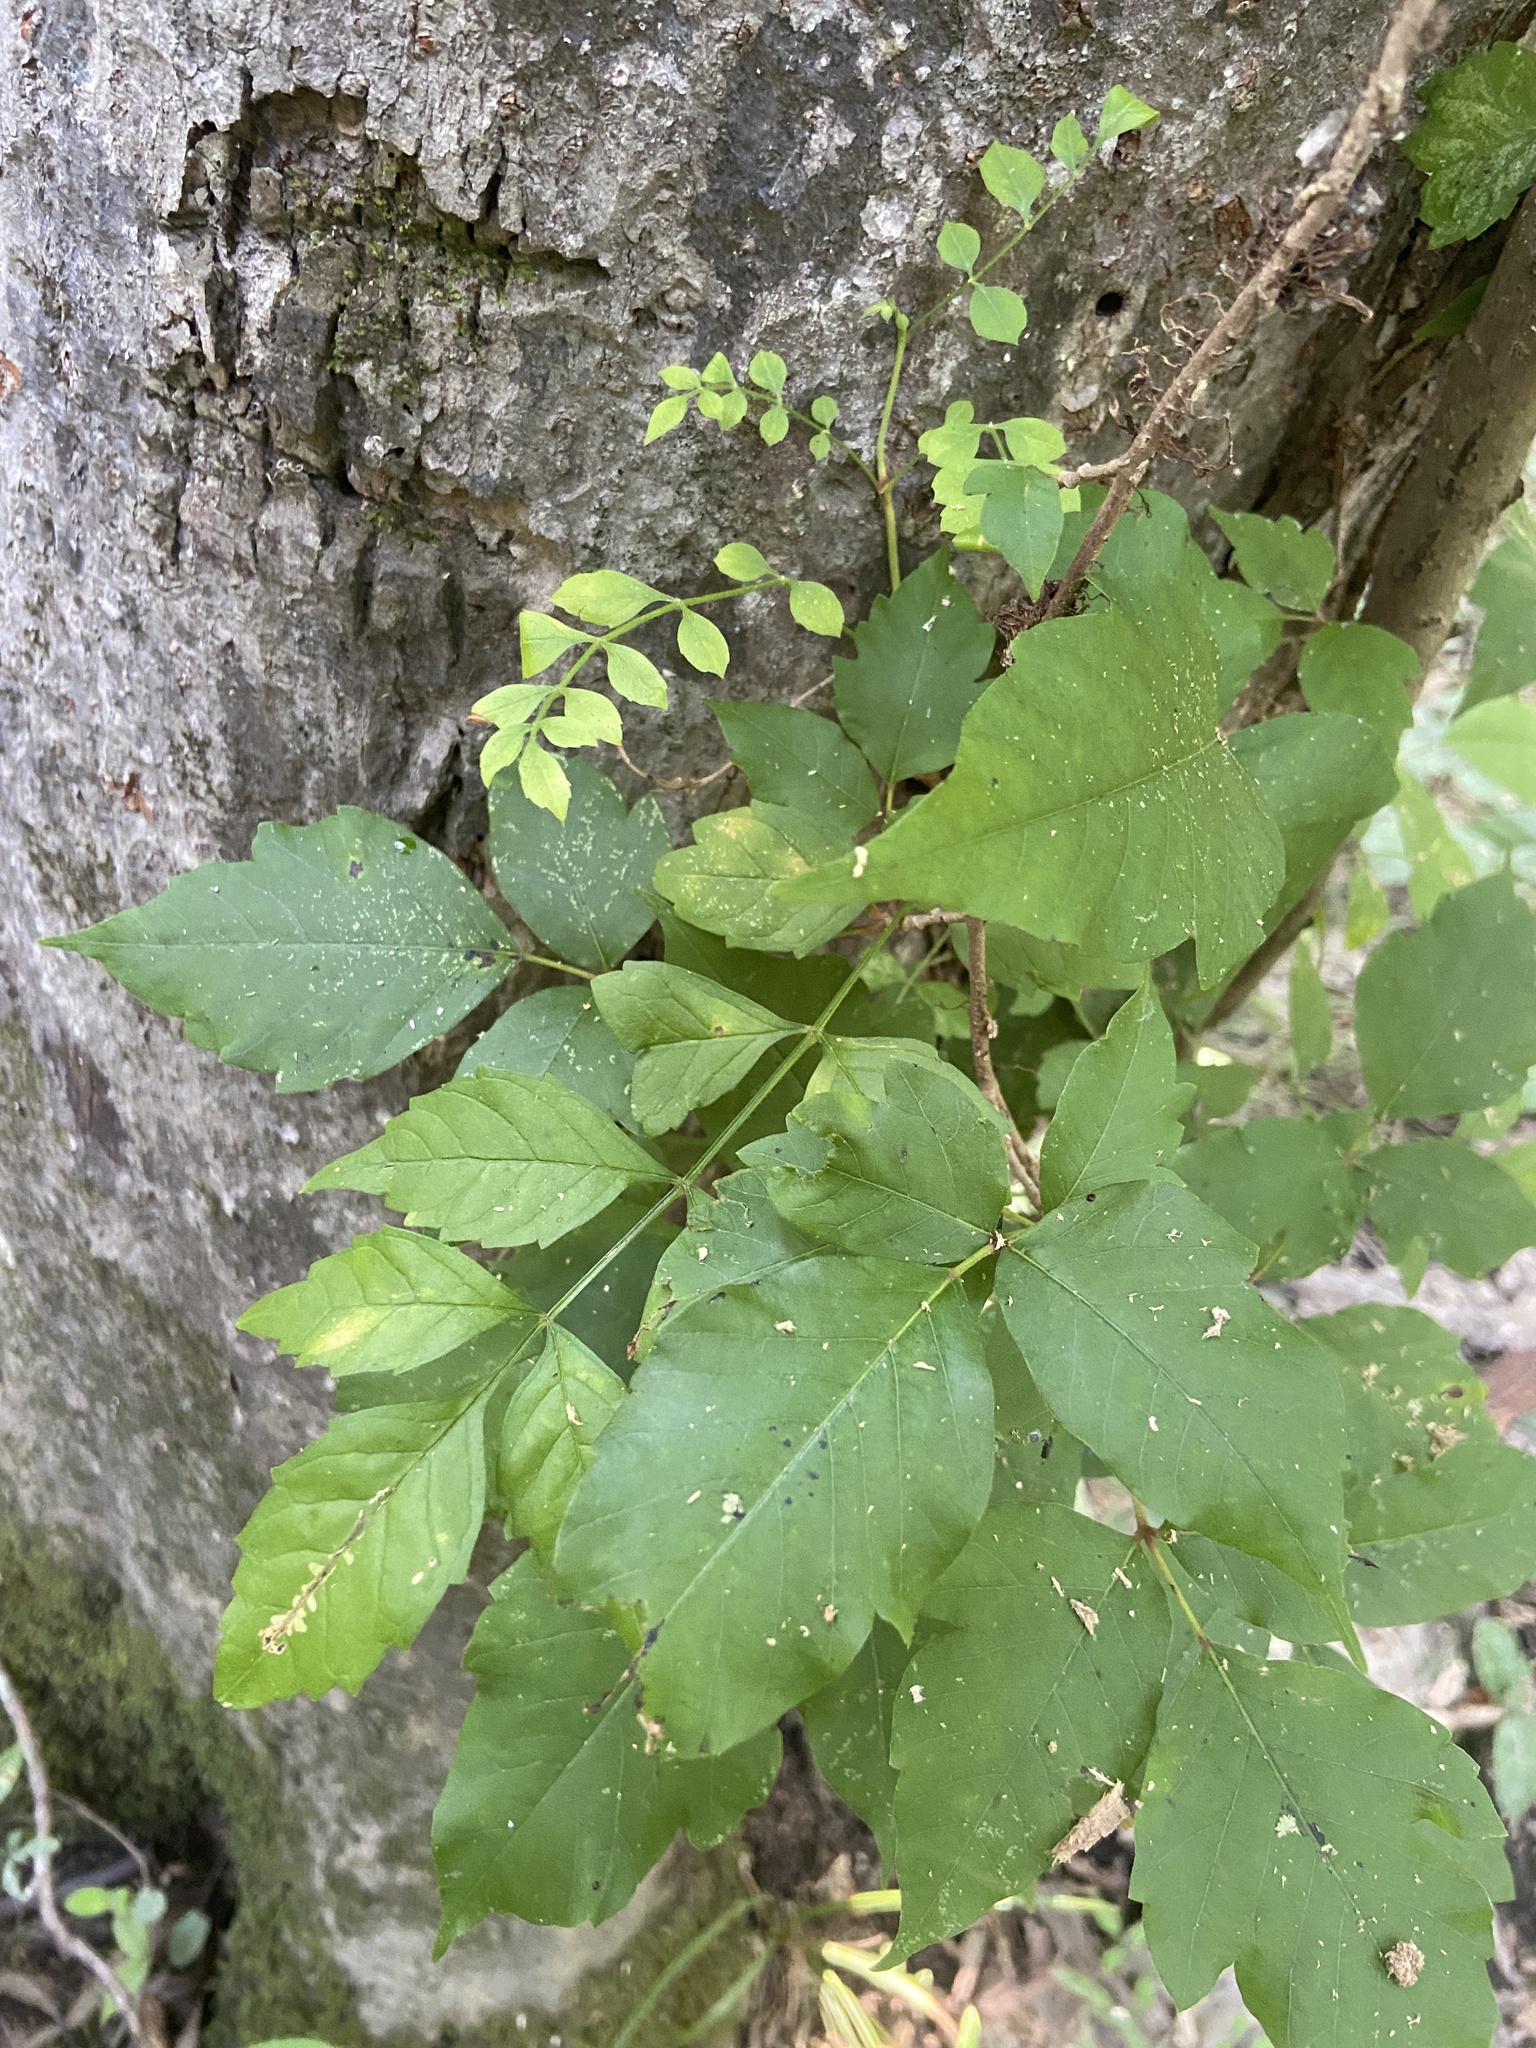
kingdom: Plantae
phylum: Tracheophyta
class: Magnoliopsida
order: Lamiales
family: Bignoniaceae
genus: Campsis
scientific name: Campsis radicans
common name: Trumpet-creeper
